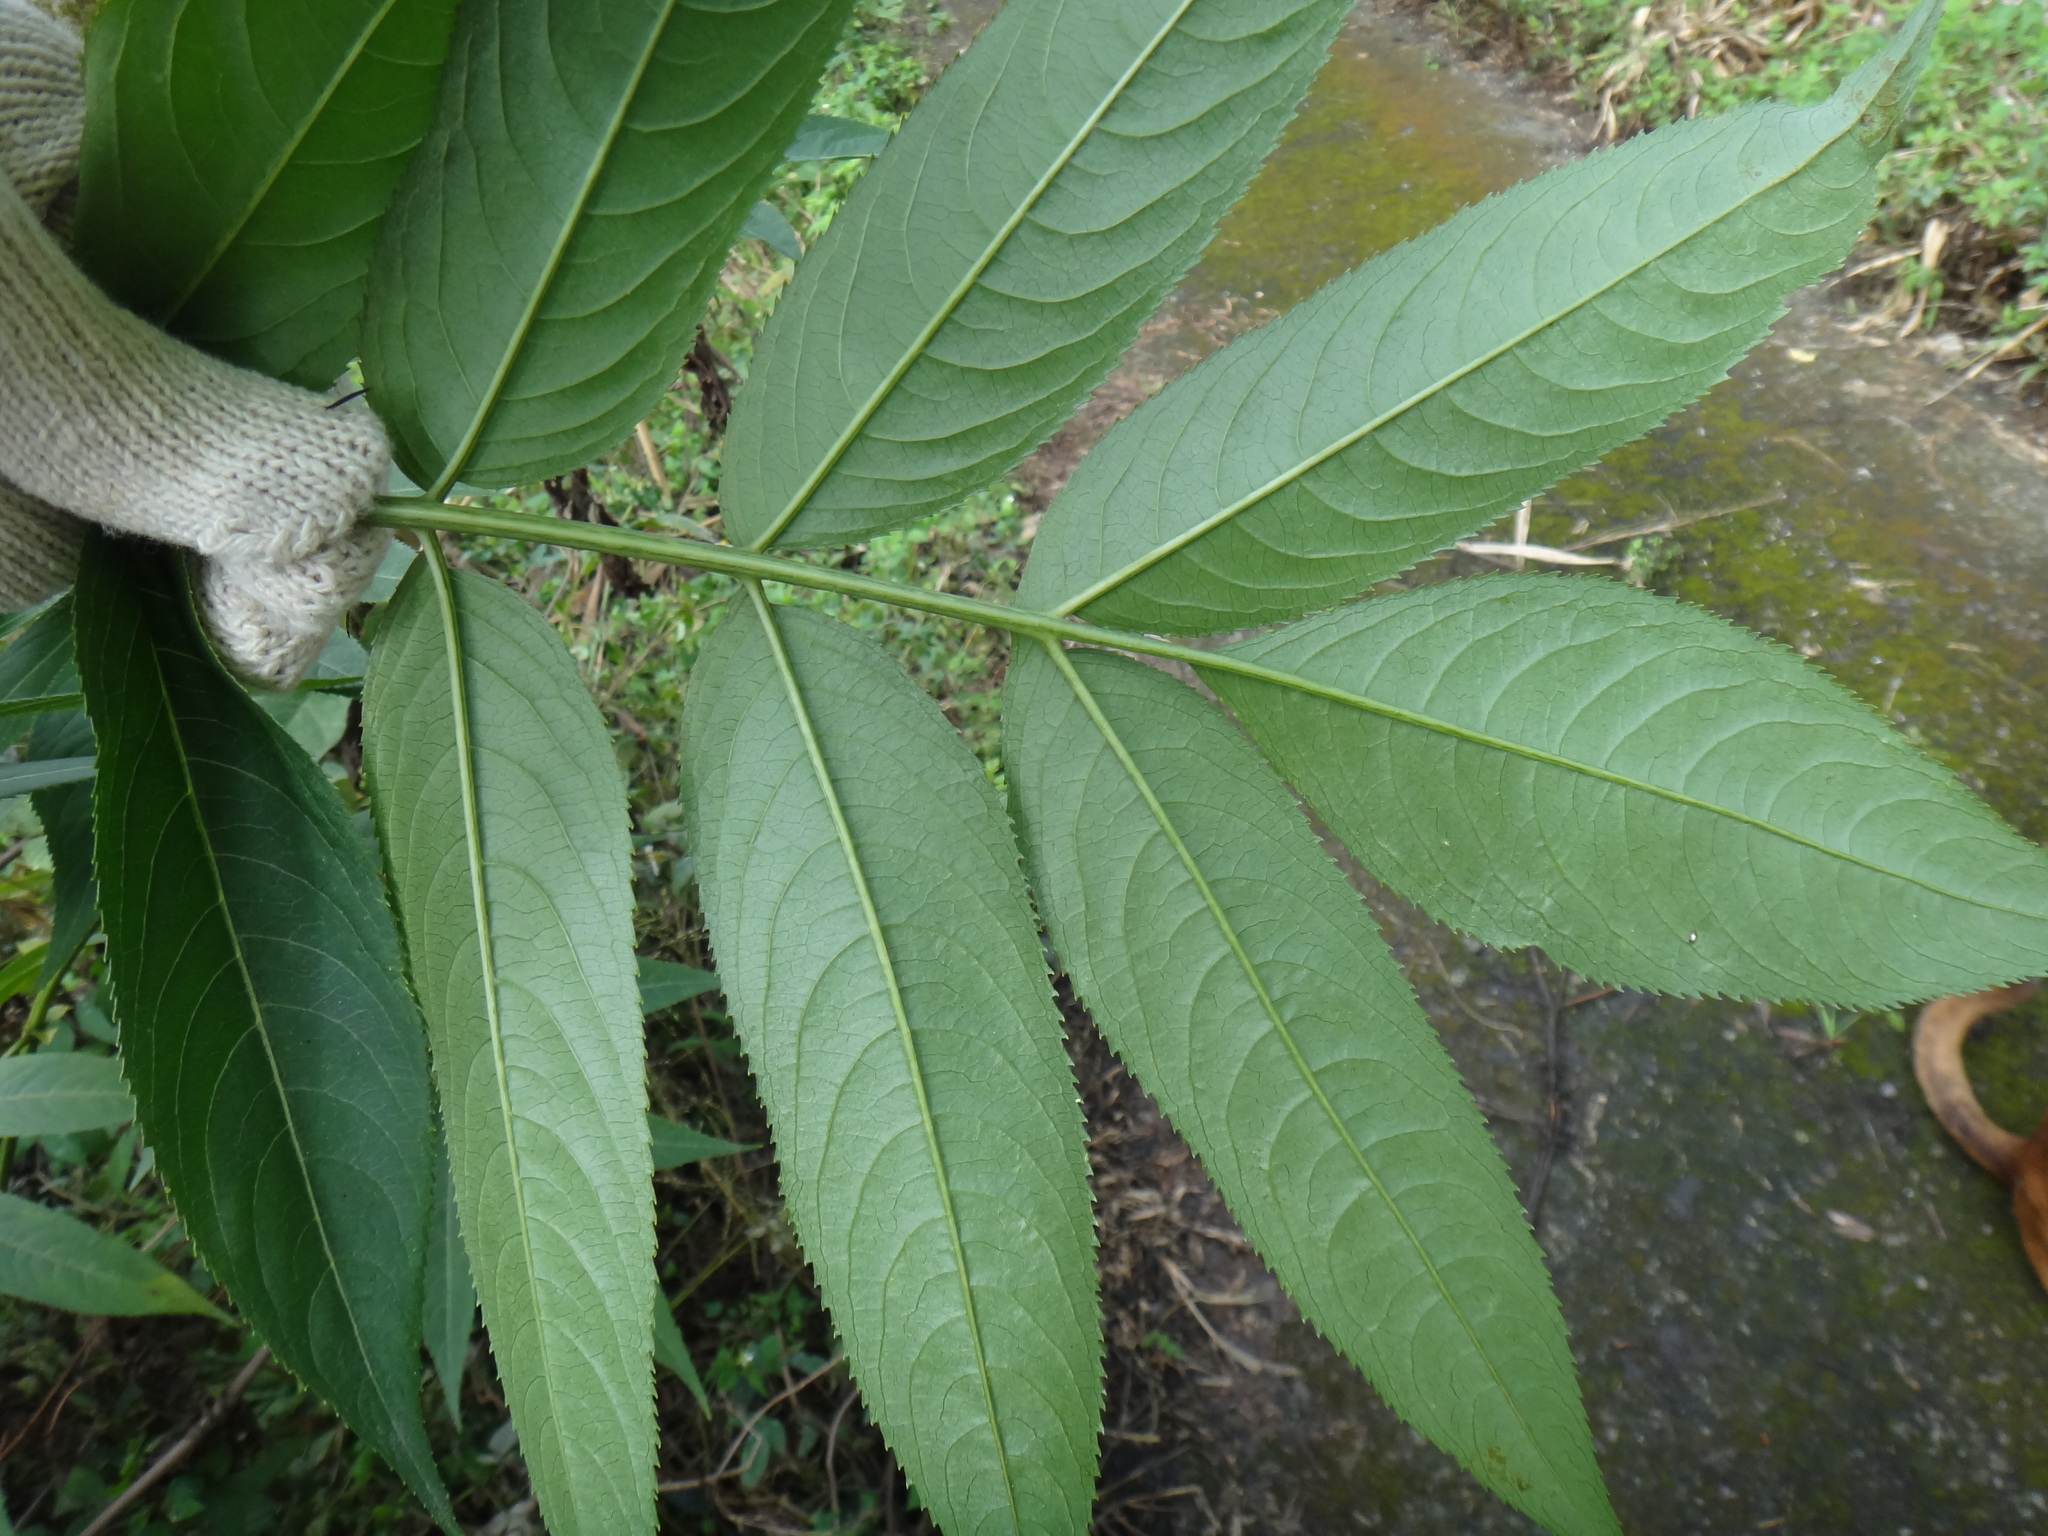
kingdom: Plantae
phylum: Tracheophyta
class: Magnoliopsida
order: Dipsacales
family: Viburnaceae
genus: Sambucus
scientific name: Sambucus javanica
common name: Chinese elder
